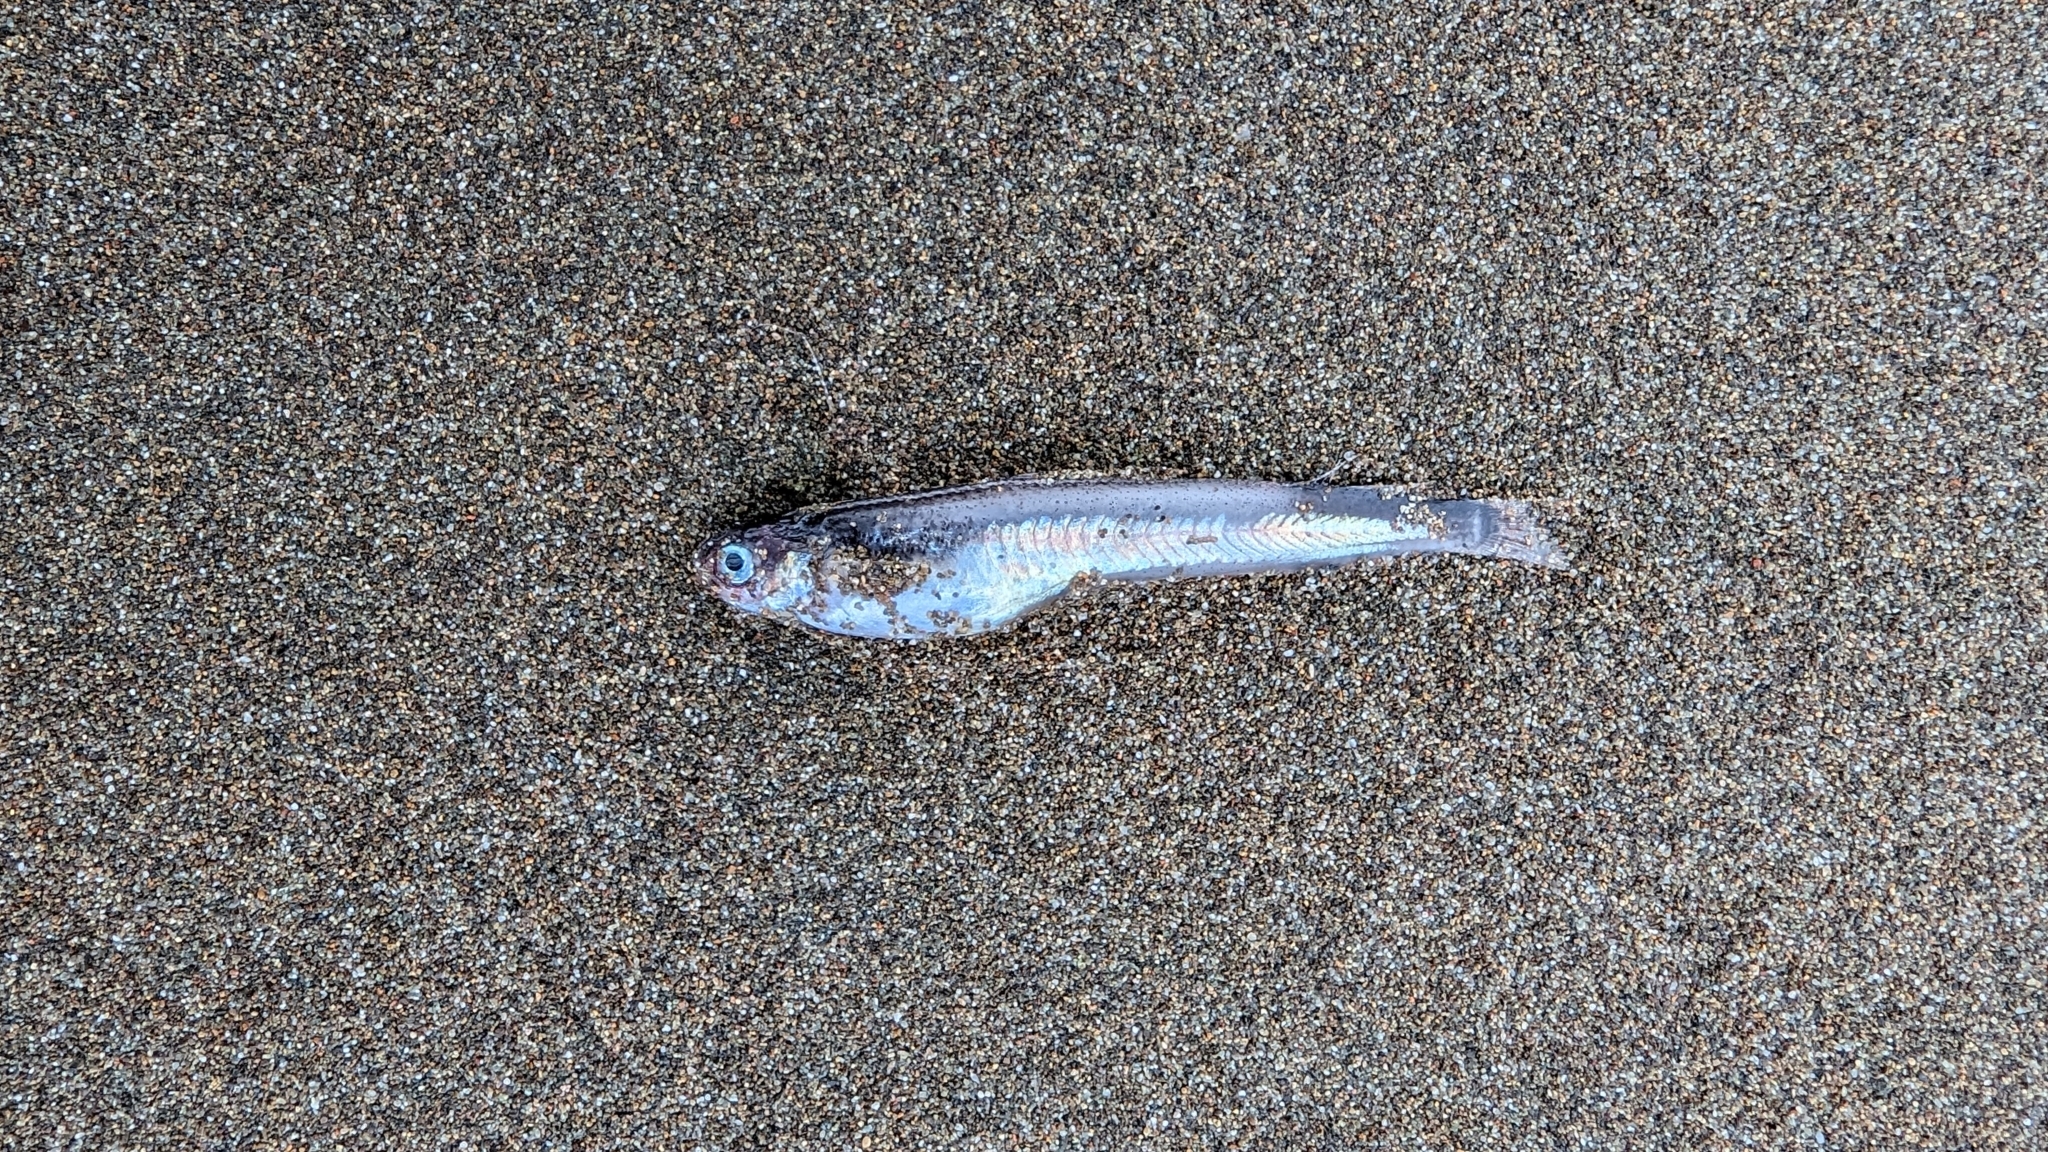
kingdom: Animalia
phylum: Chordata
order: Gadiformes
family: Bregmacerotidae
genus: Bregmaceros
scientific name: Bregmaceros bathymaster
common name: Codlet
